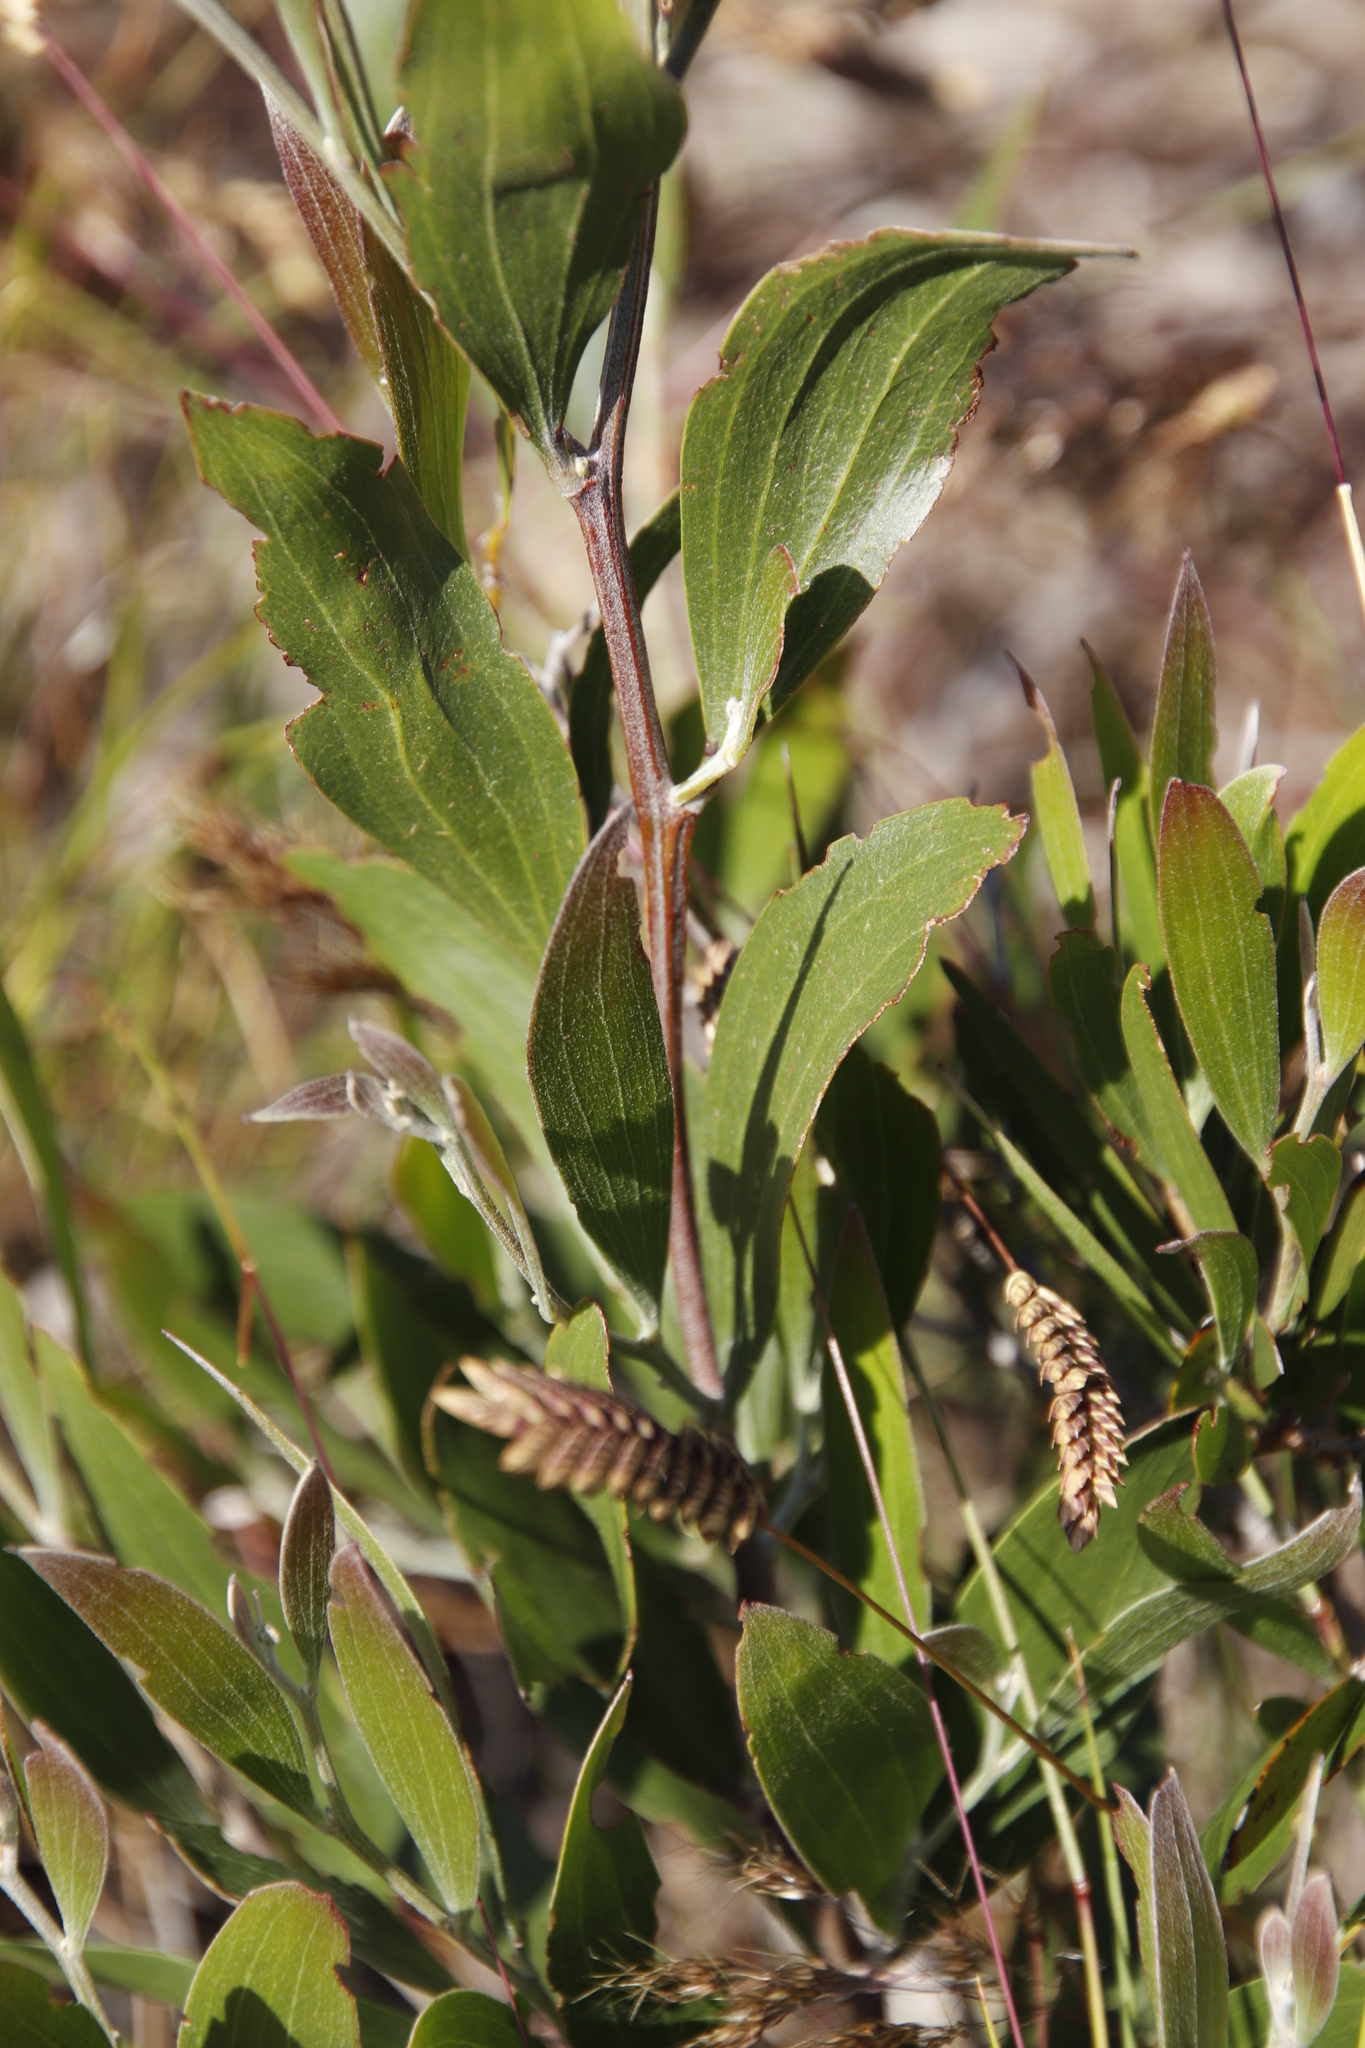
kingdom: Plantae
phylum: Tracheophyta
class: Magnoliopsida
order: Fabales
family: Fabaceae
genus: Acacia
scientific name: Acacia melanoxylon
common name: Blackwood
